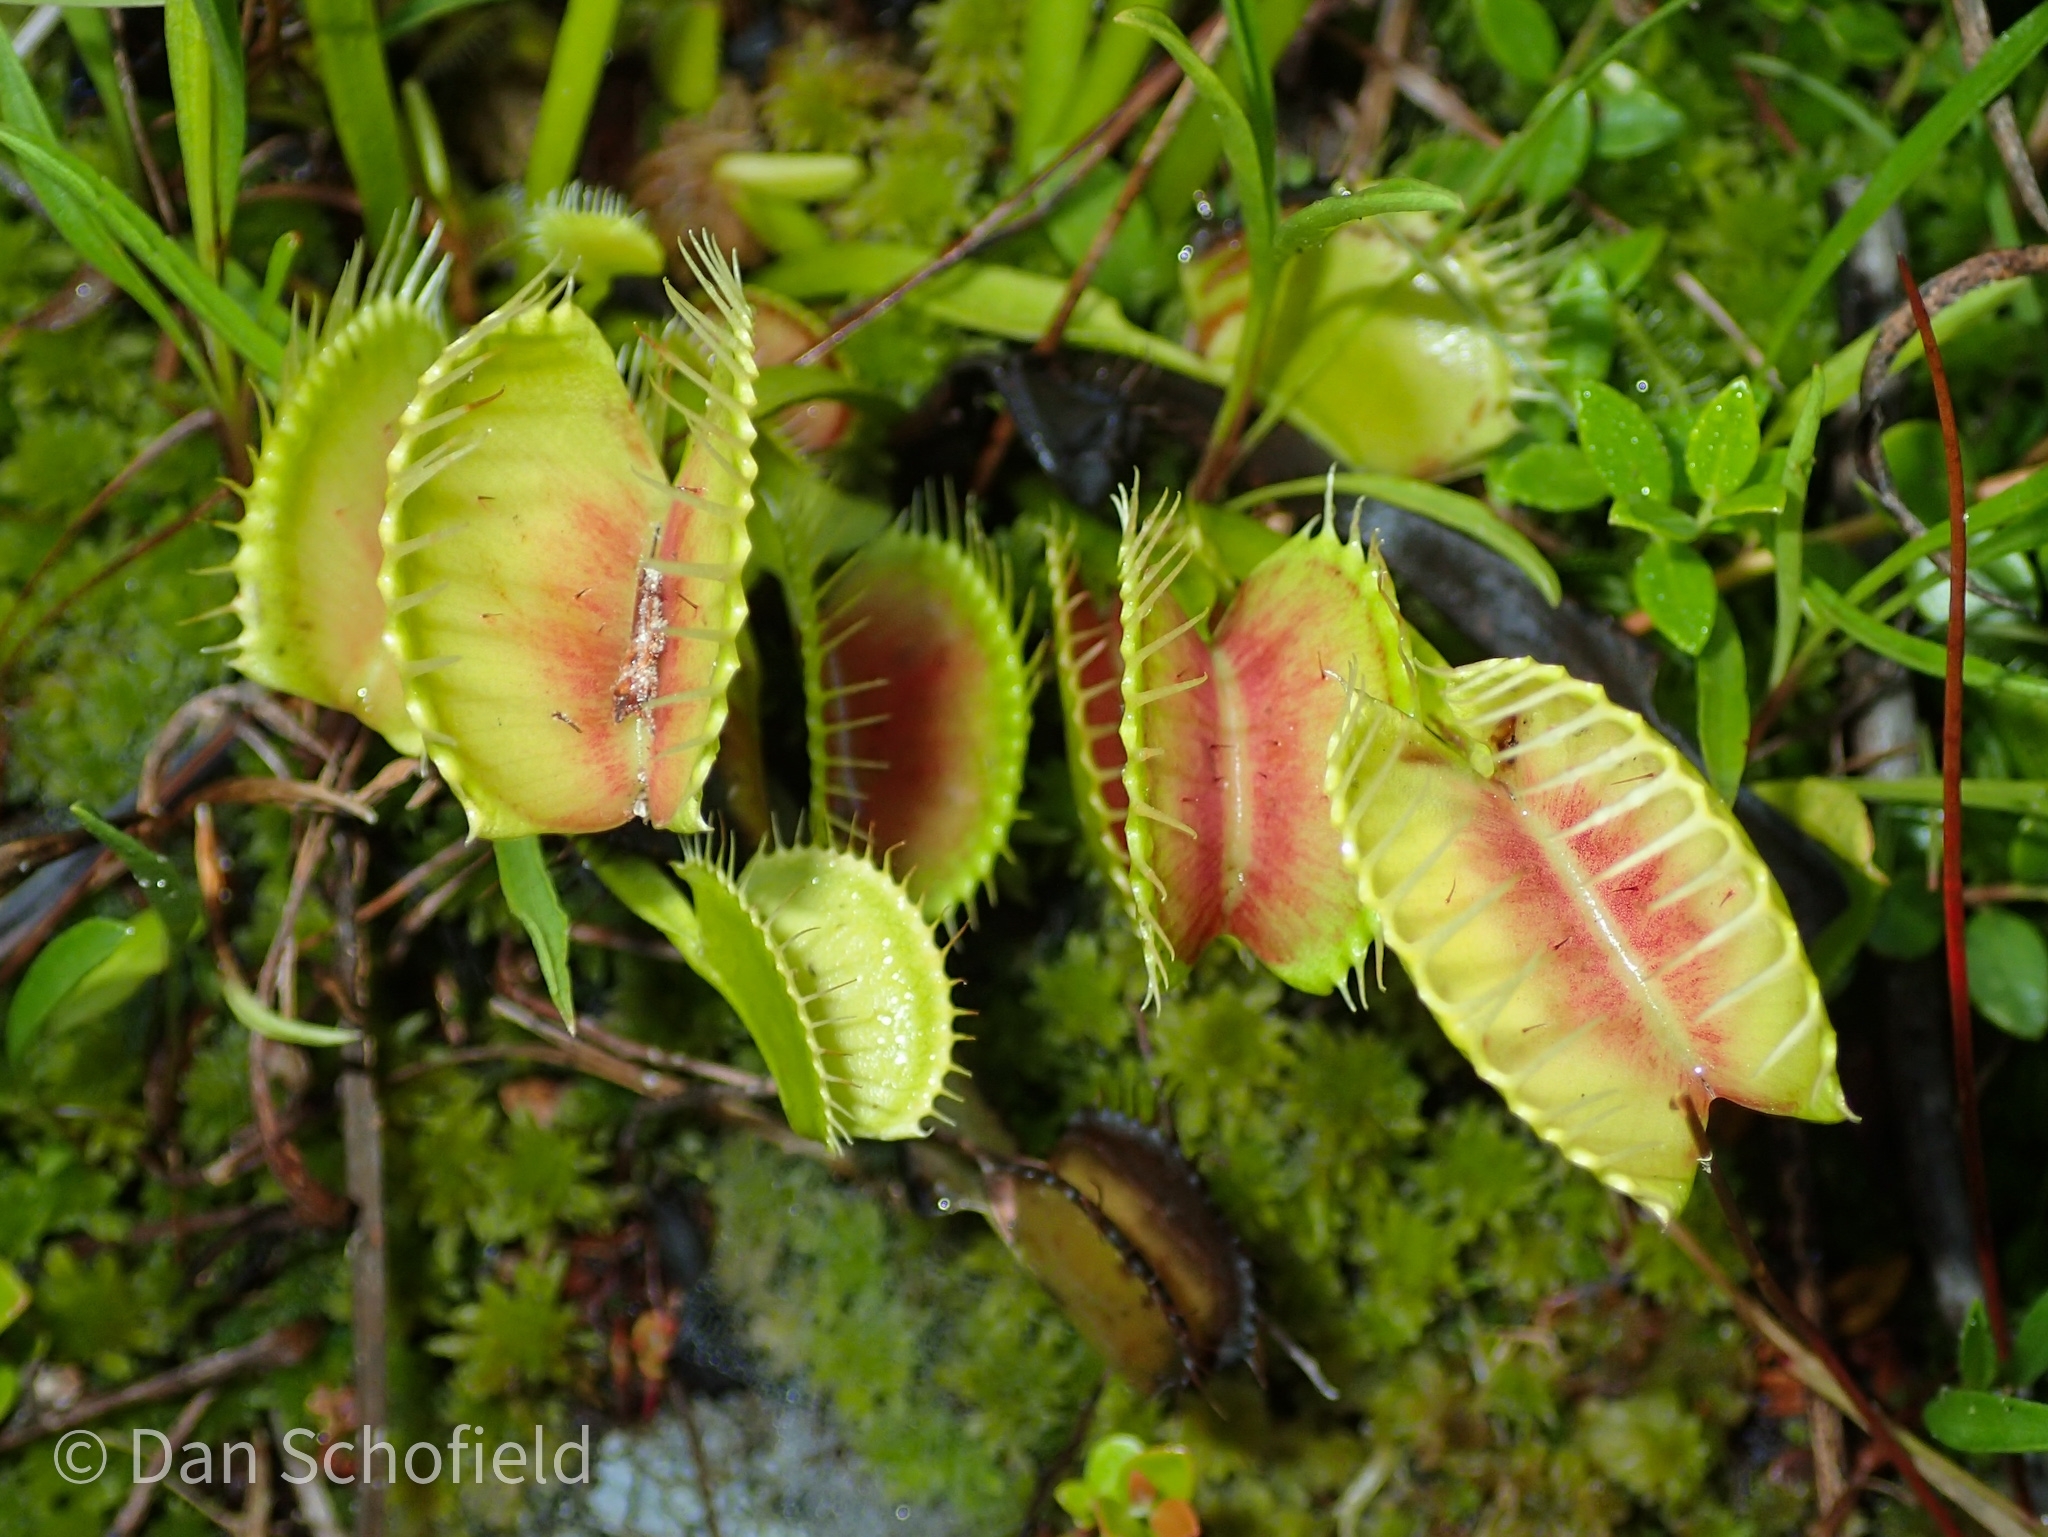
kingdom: Plantae
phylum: Tracheophyta
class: Magnoliopsida
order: Caryophyllales
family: Droseraceae
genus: Dionaea
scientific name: Dionaea muscipula
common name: Venus flytrap
